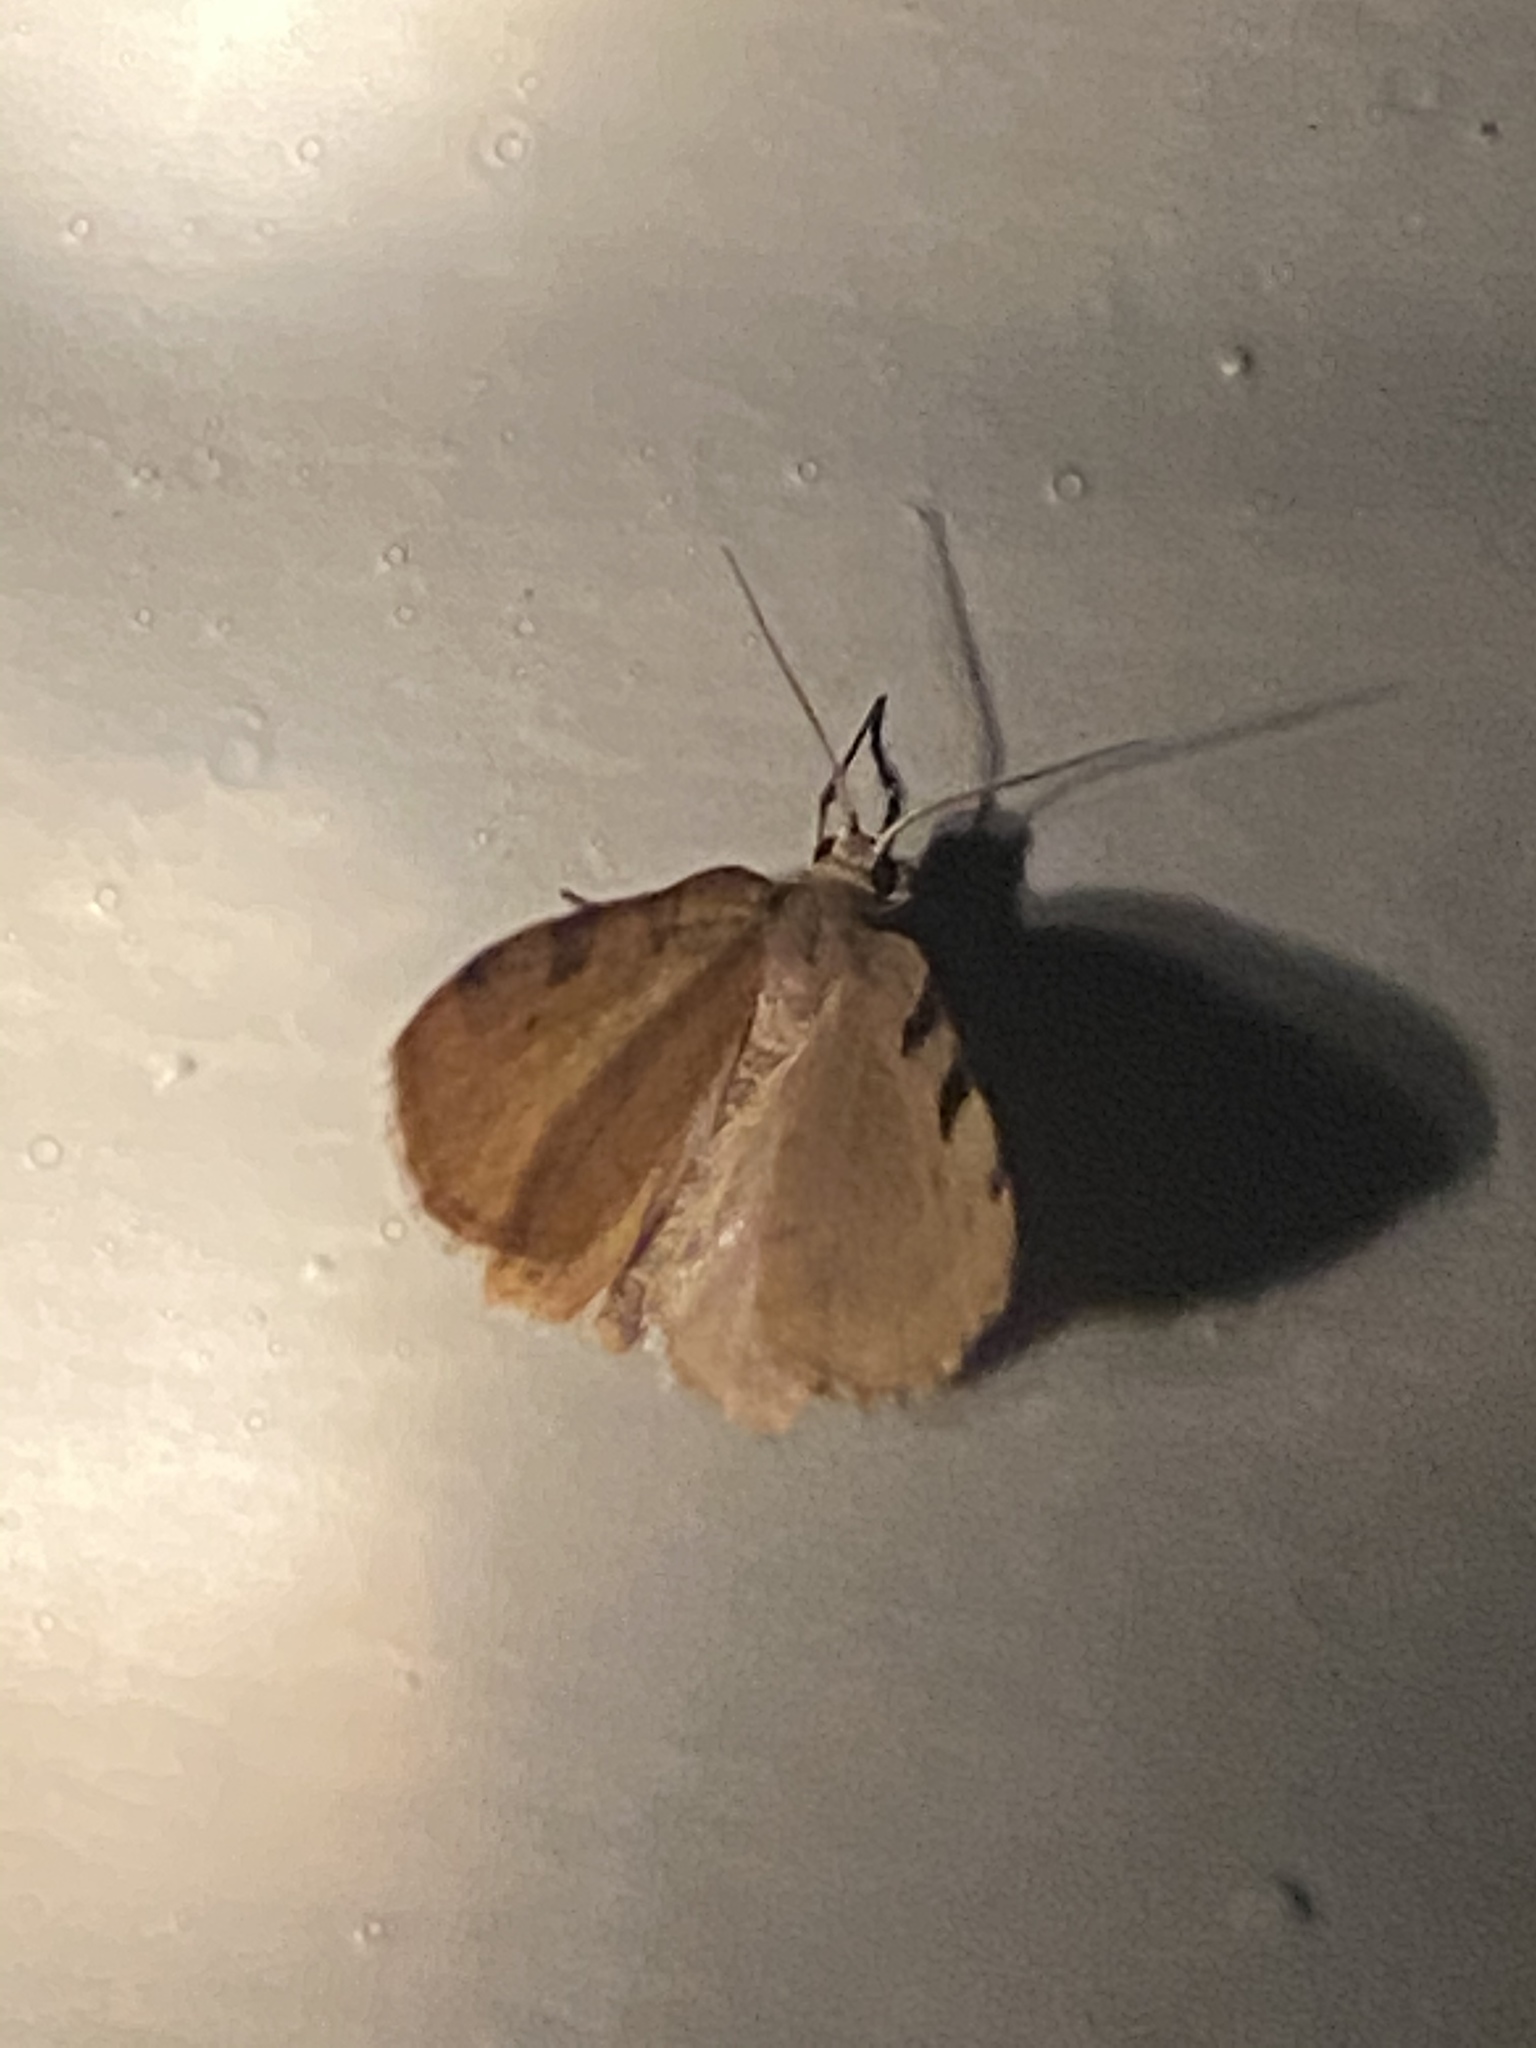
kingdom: Animalia
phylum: Arthropoda
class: Insecta
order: Lepidoptera
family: Geometridae
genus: Heterophleps
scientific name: Heterophleps triguttaria
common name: Three-spotted fillip
